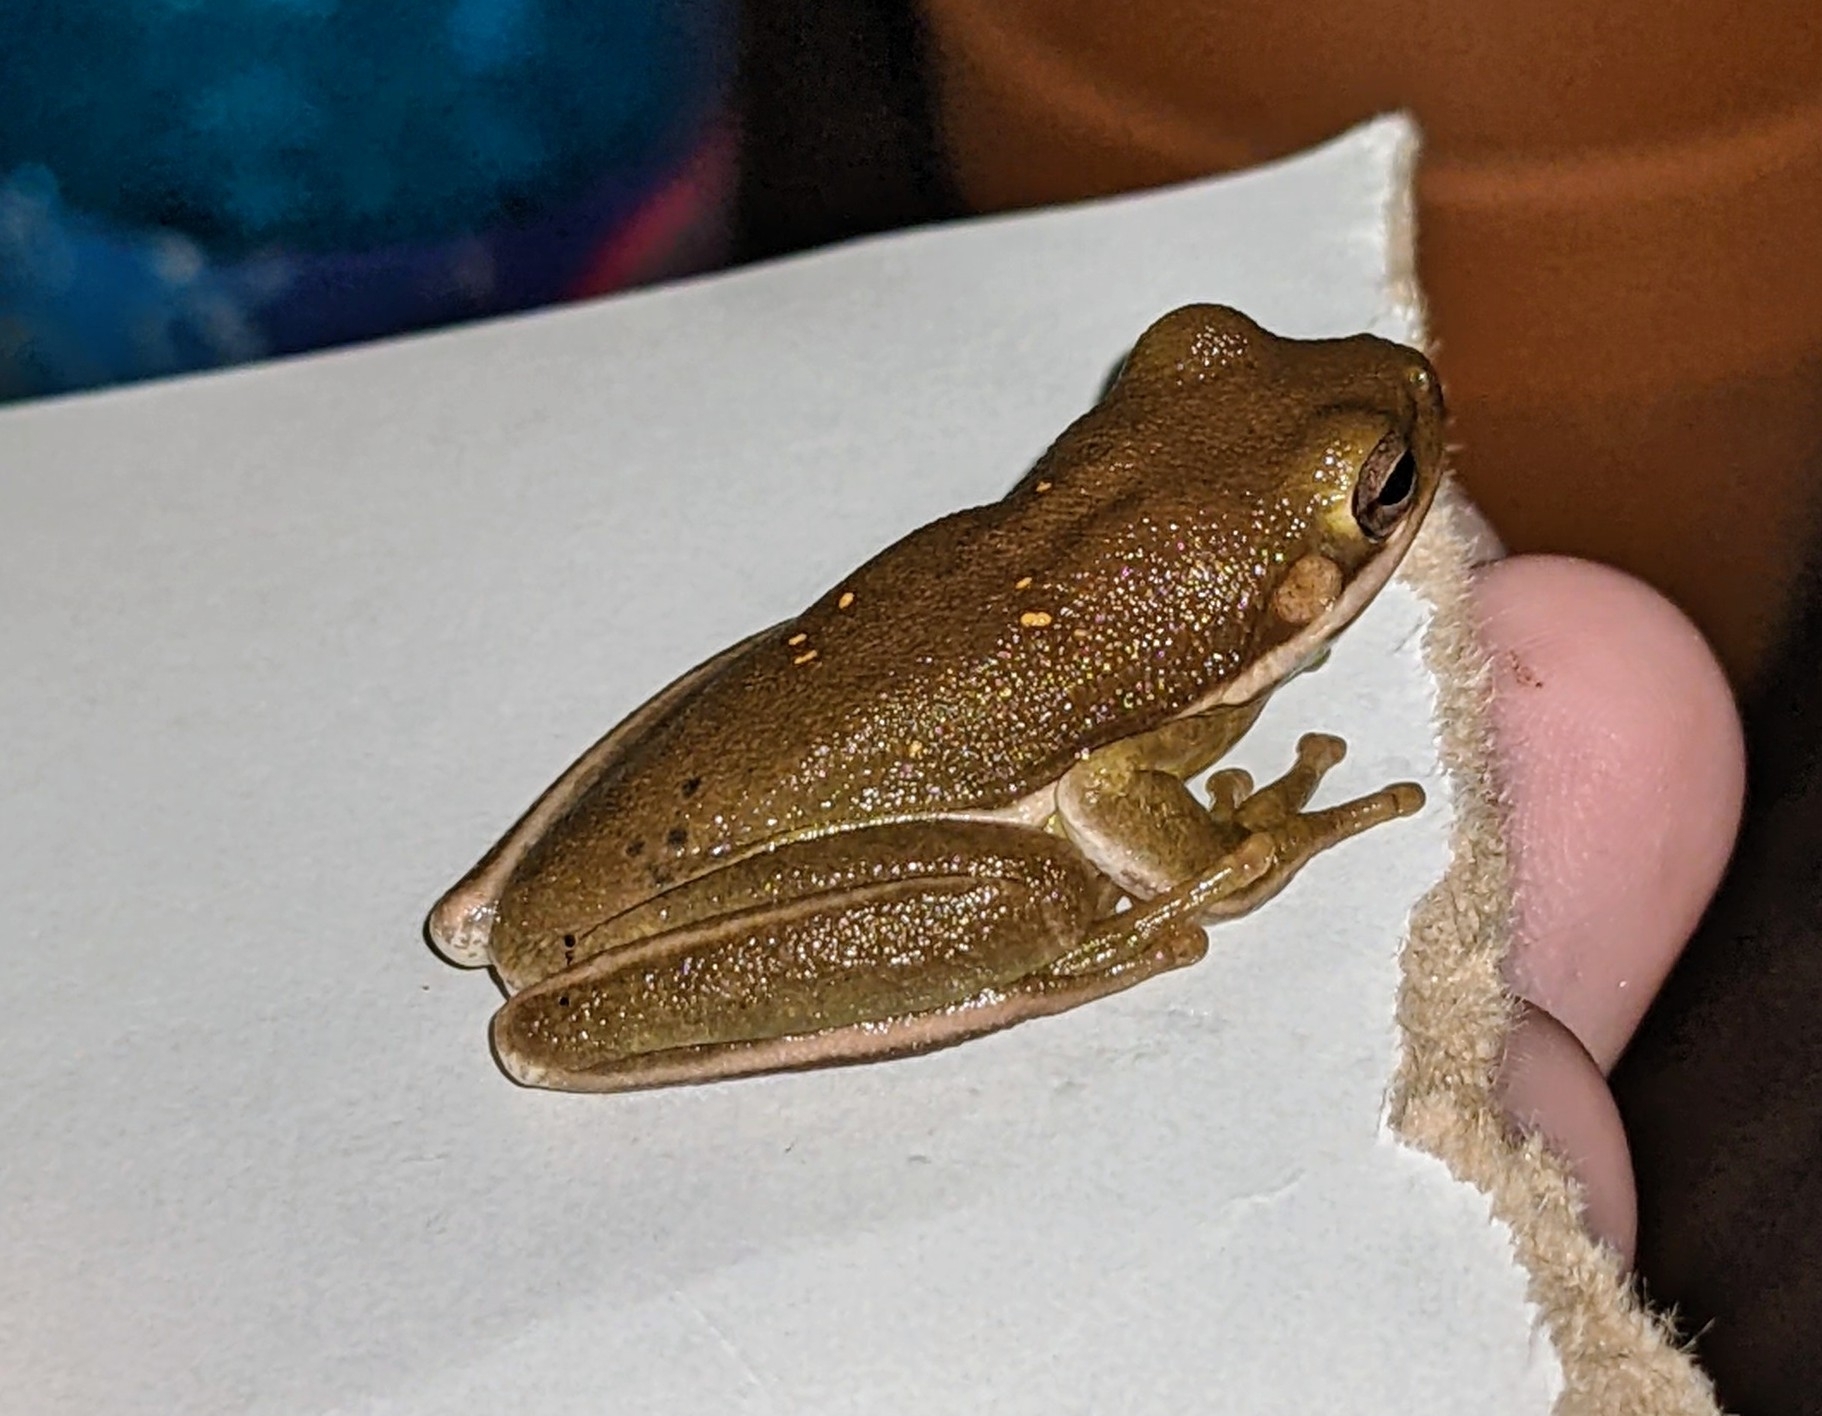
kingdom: Animalia
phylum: Chordata
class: Amphibia
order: Anura
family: Hylidae
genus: Dryophytes
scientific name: Dryophytes cinereus
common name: Green treefrog
